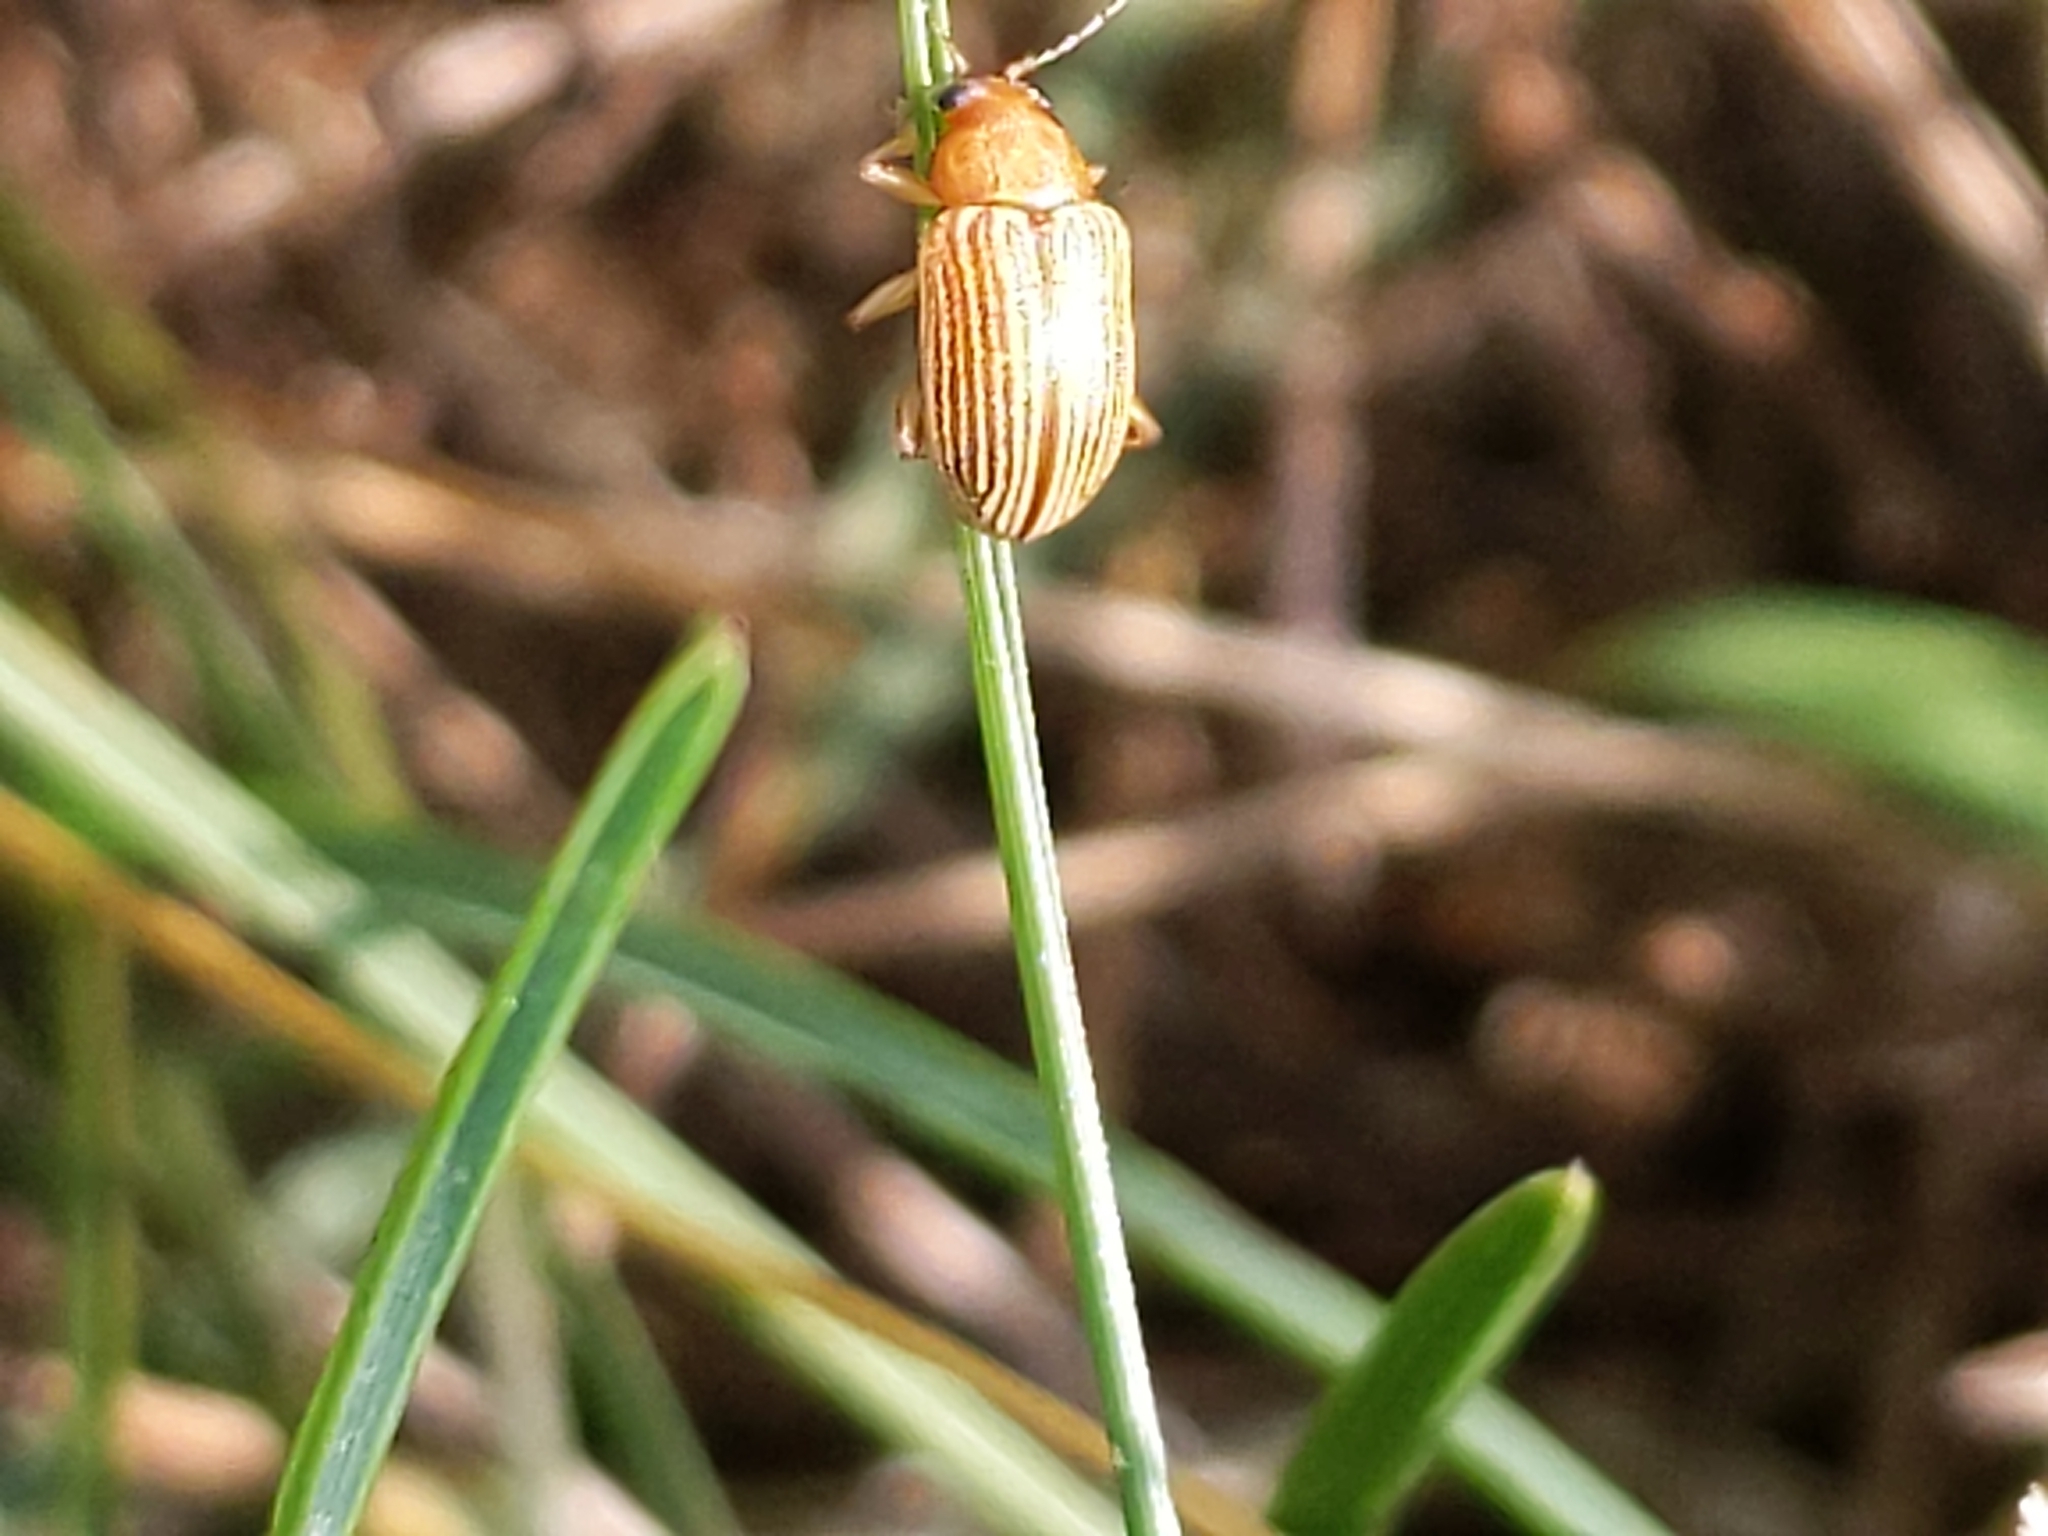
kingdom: Animalia
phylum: Arthropoda
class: Insecta
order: Coleoptera
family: Chrysomelidae
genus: Colaspis
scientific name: Colaspis brunnea
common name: Grape colaspis
